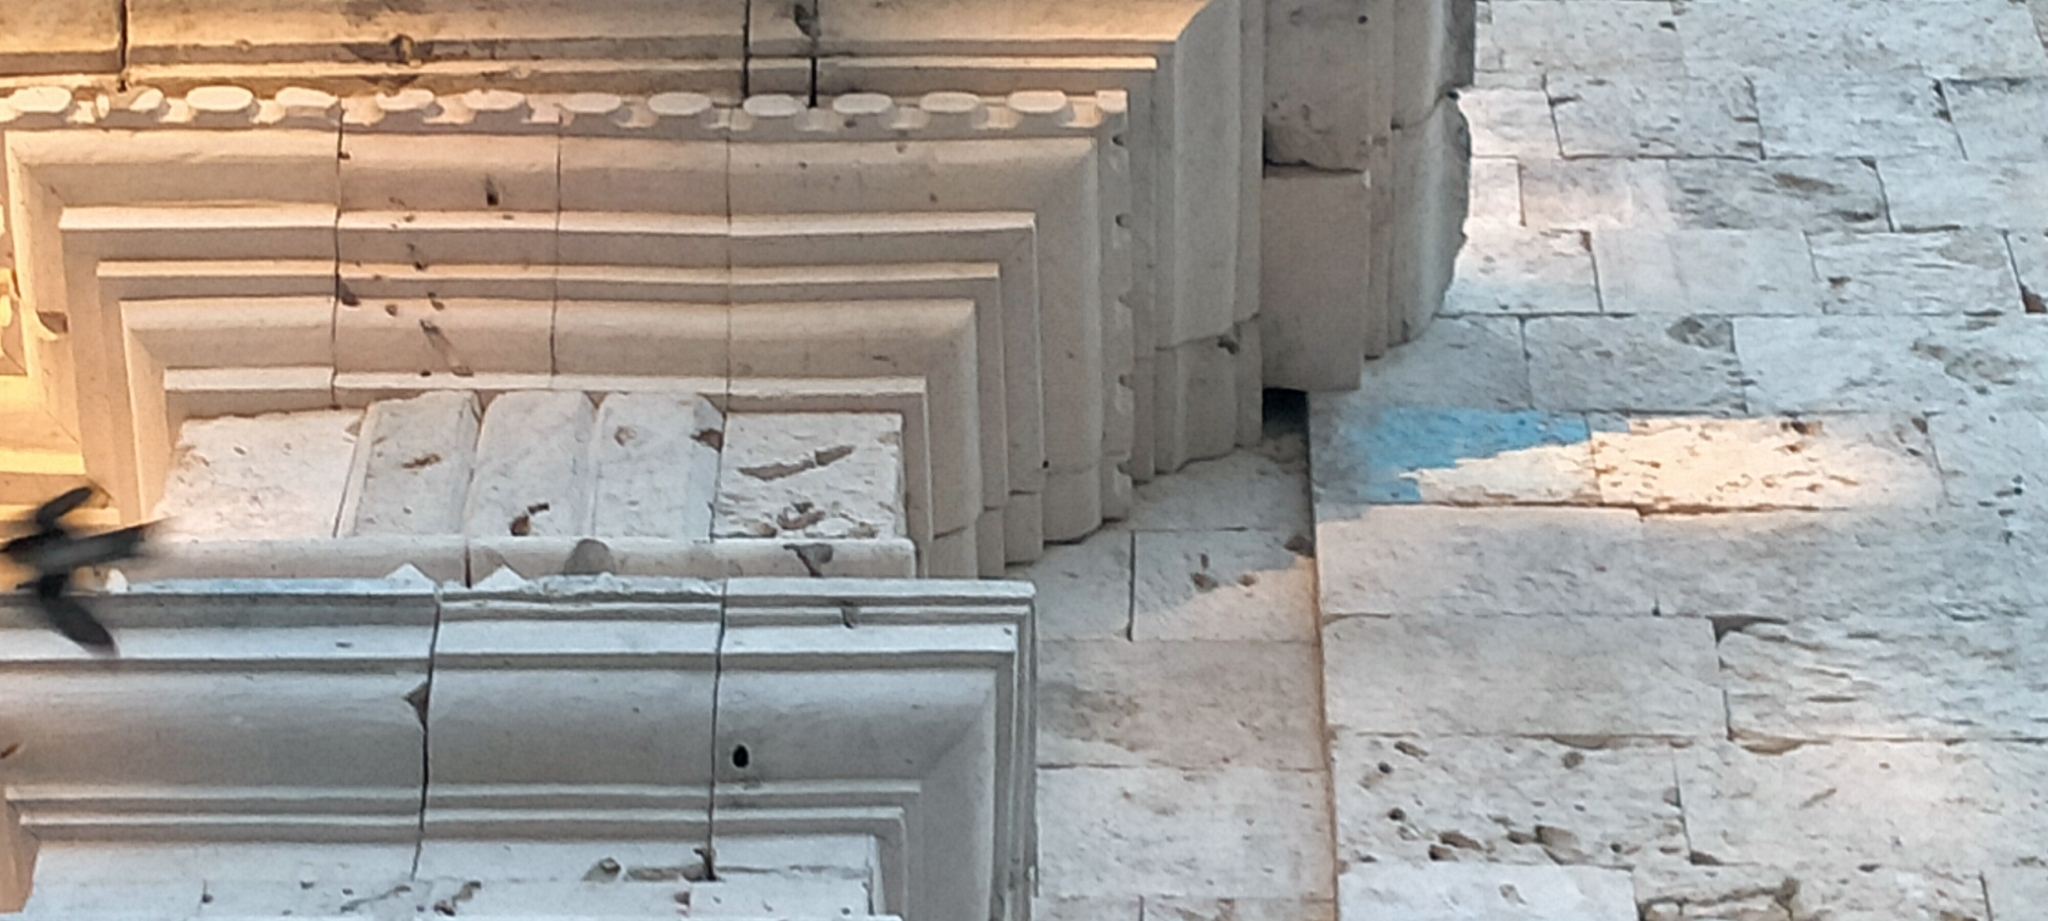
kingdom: Animalia
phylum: Chordata
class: Aves
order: Passeriformes
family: Hirundinidae
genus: Hirundo
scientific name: Hirundo tahitica
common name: Pacific swallow
